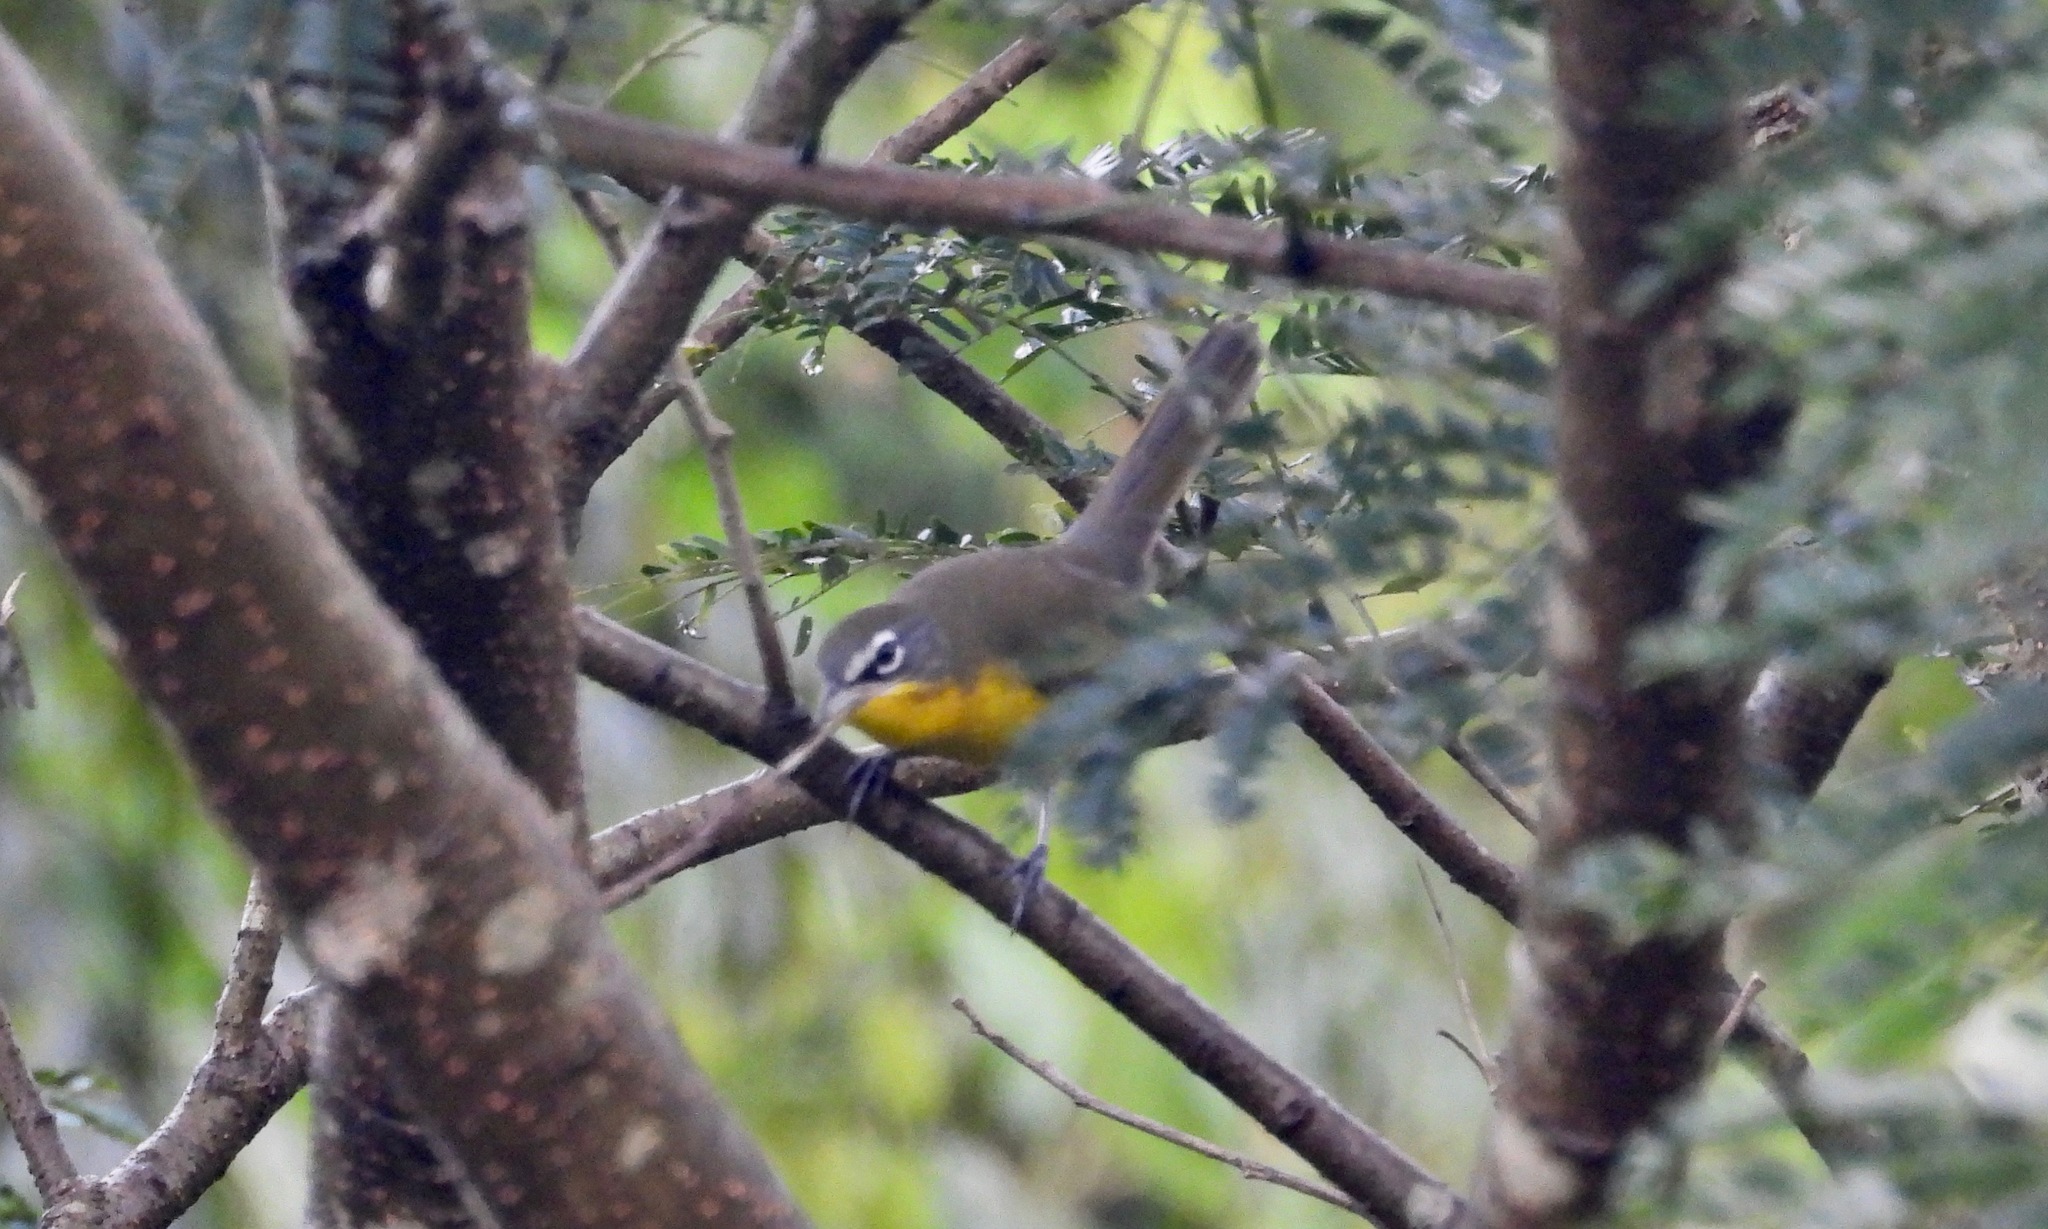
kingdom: Animalia
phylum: Chordata
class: Aves
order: Passeriformes
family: Parulidae
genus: Icteria
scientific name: Icteria virens
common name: Yellow-breasted chat
